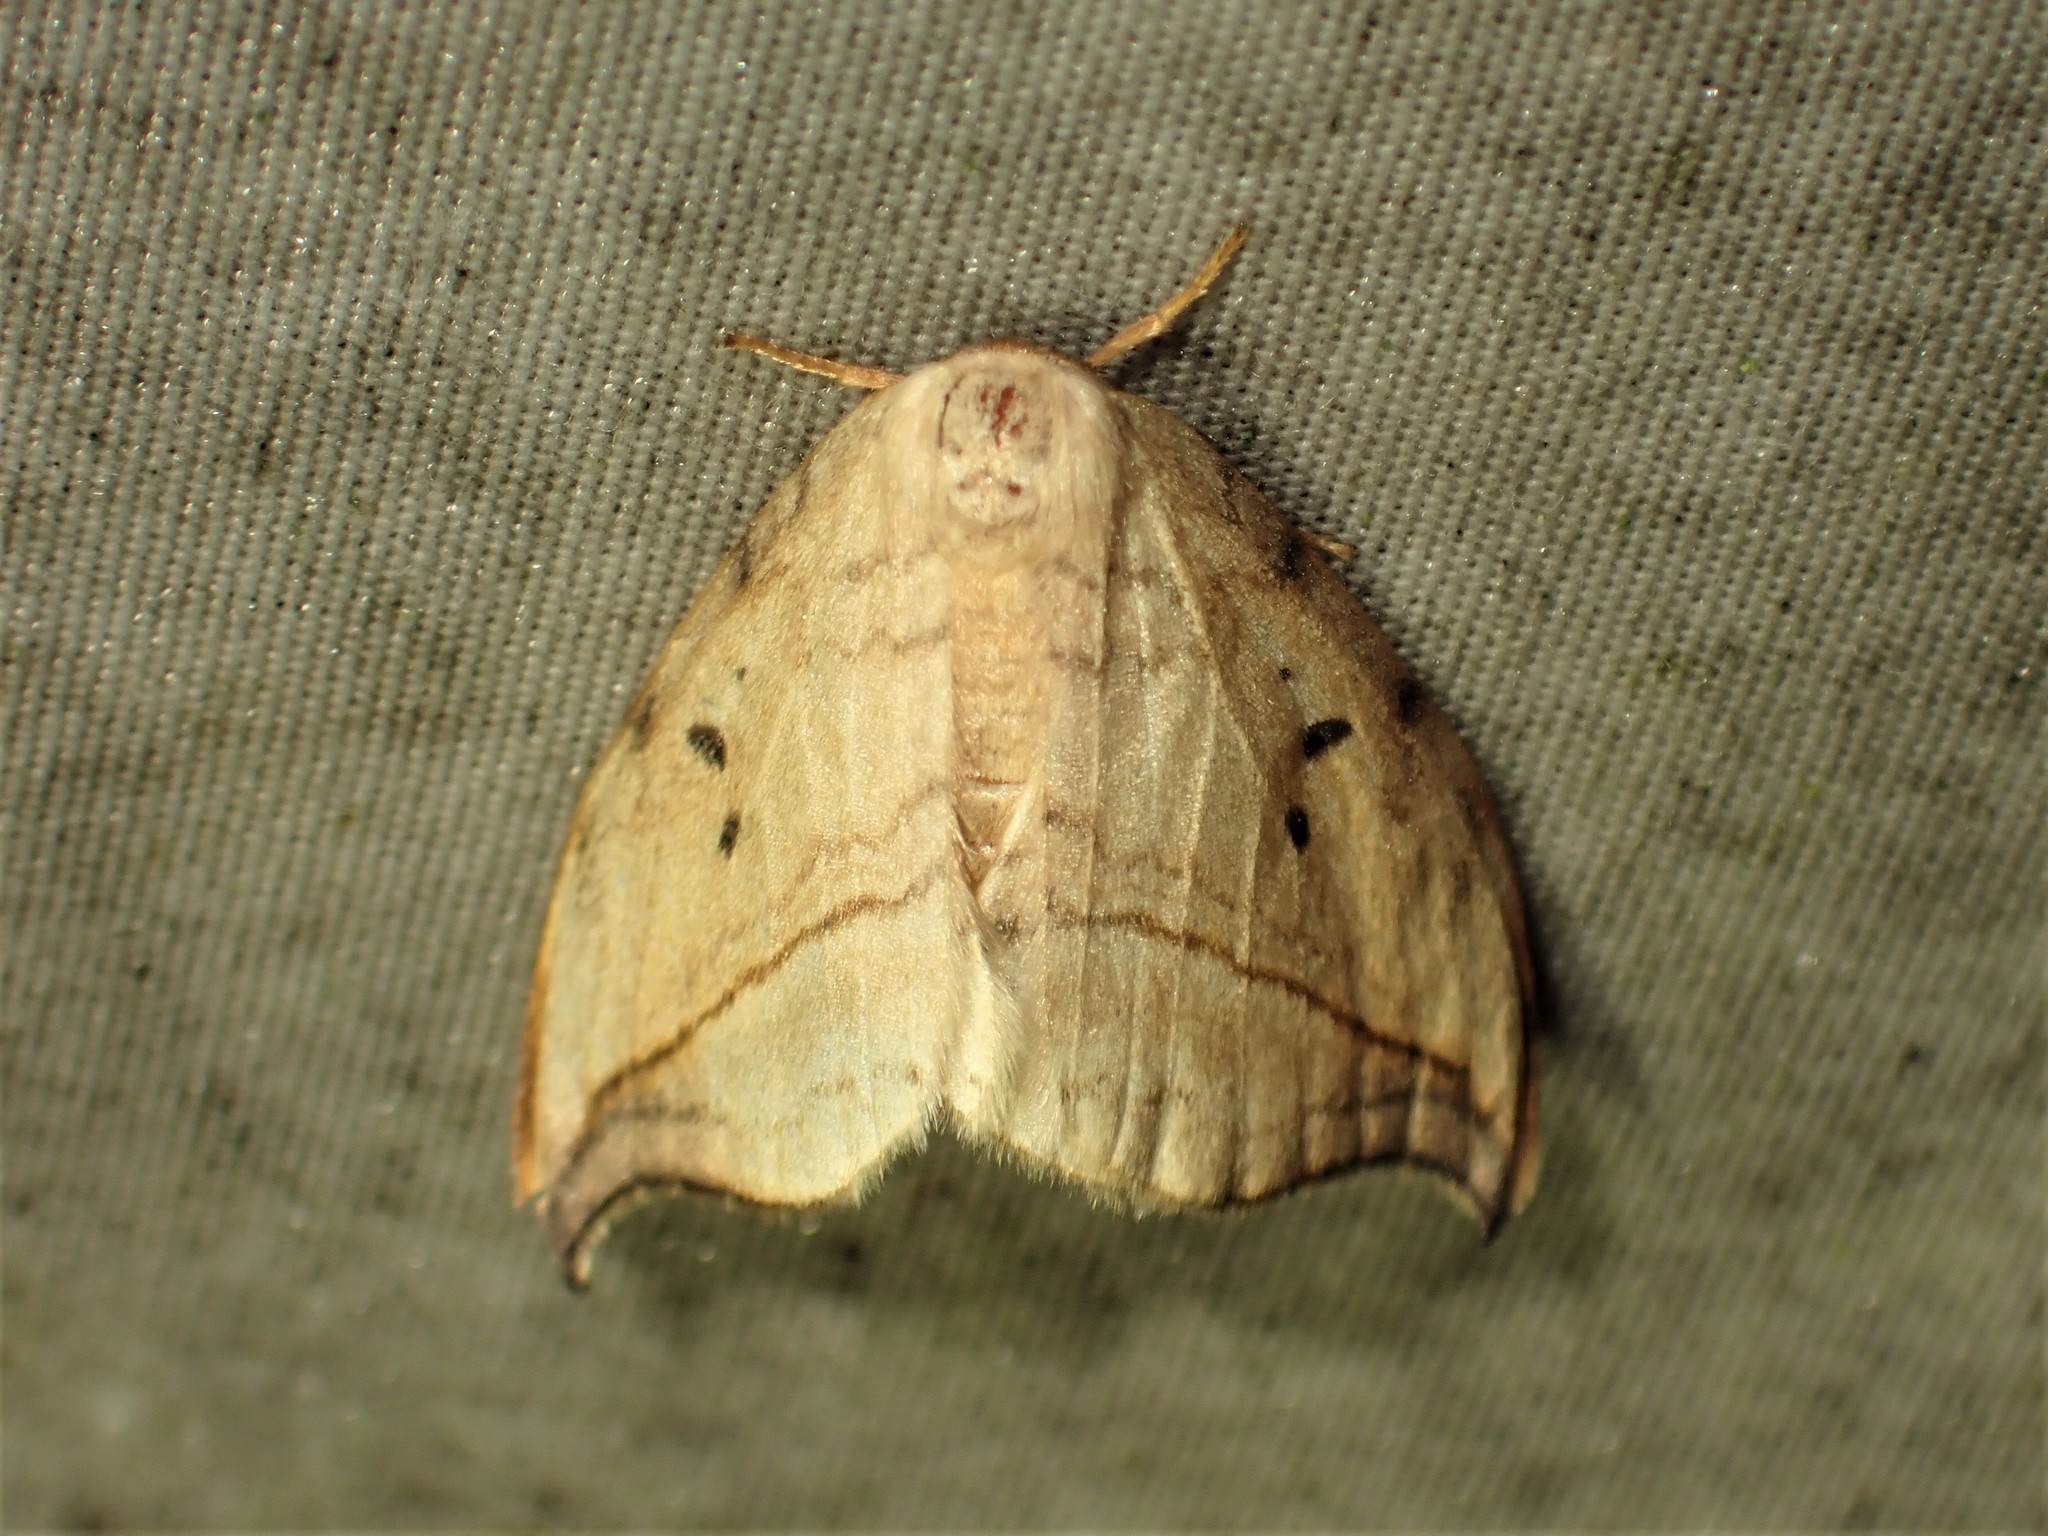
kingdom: Animalia
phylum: Arthropoda
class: Insecta
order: Lepidoptera
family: Drepanidae
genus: Drepana
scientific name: Drepana arcuata
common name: Arched hooktip moth
